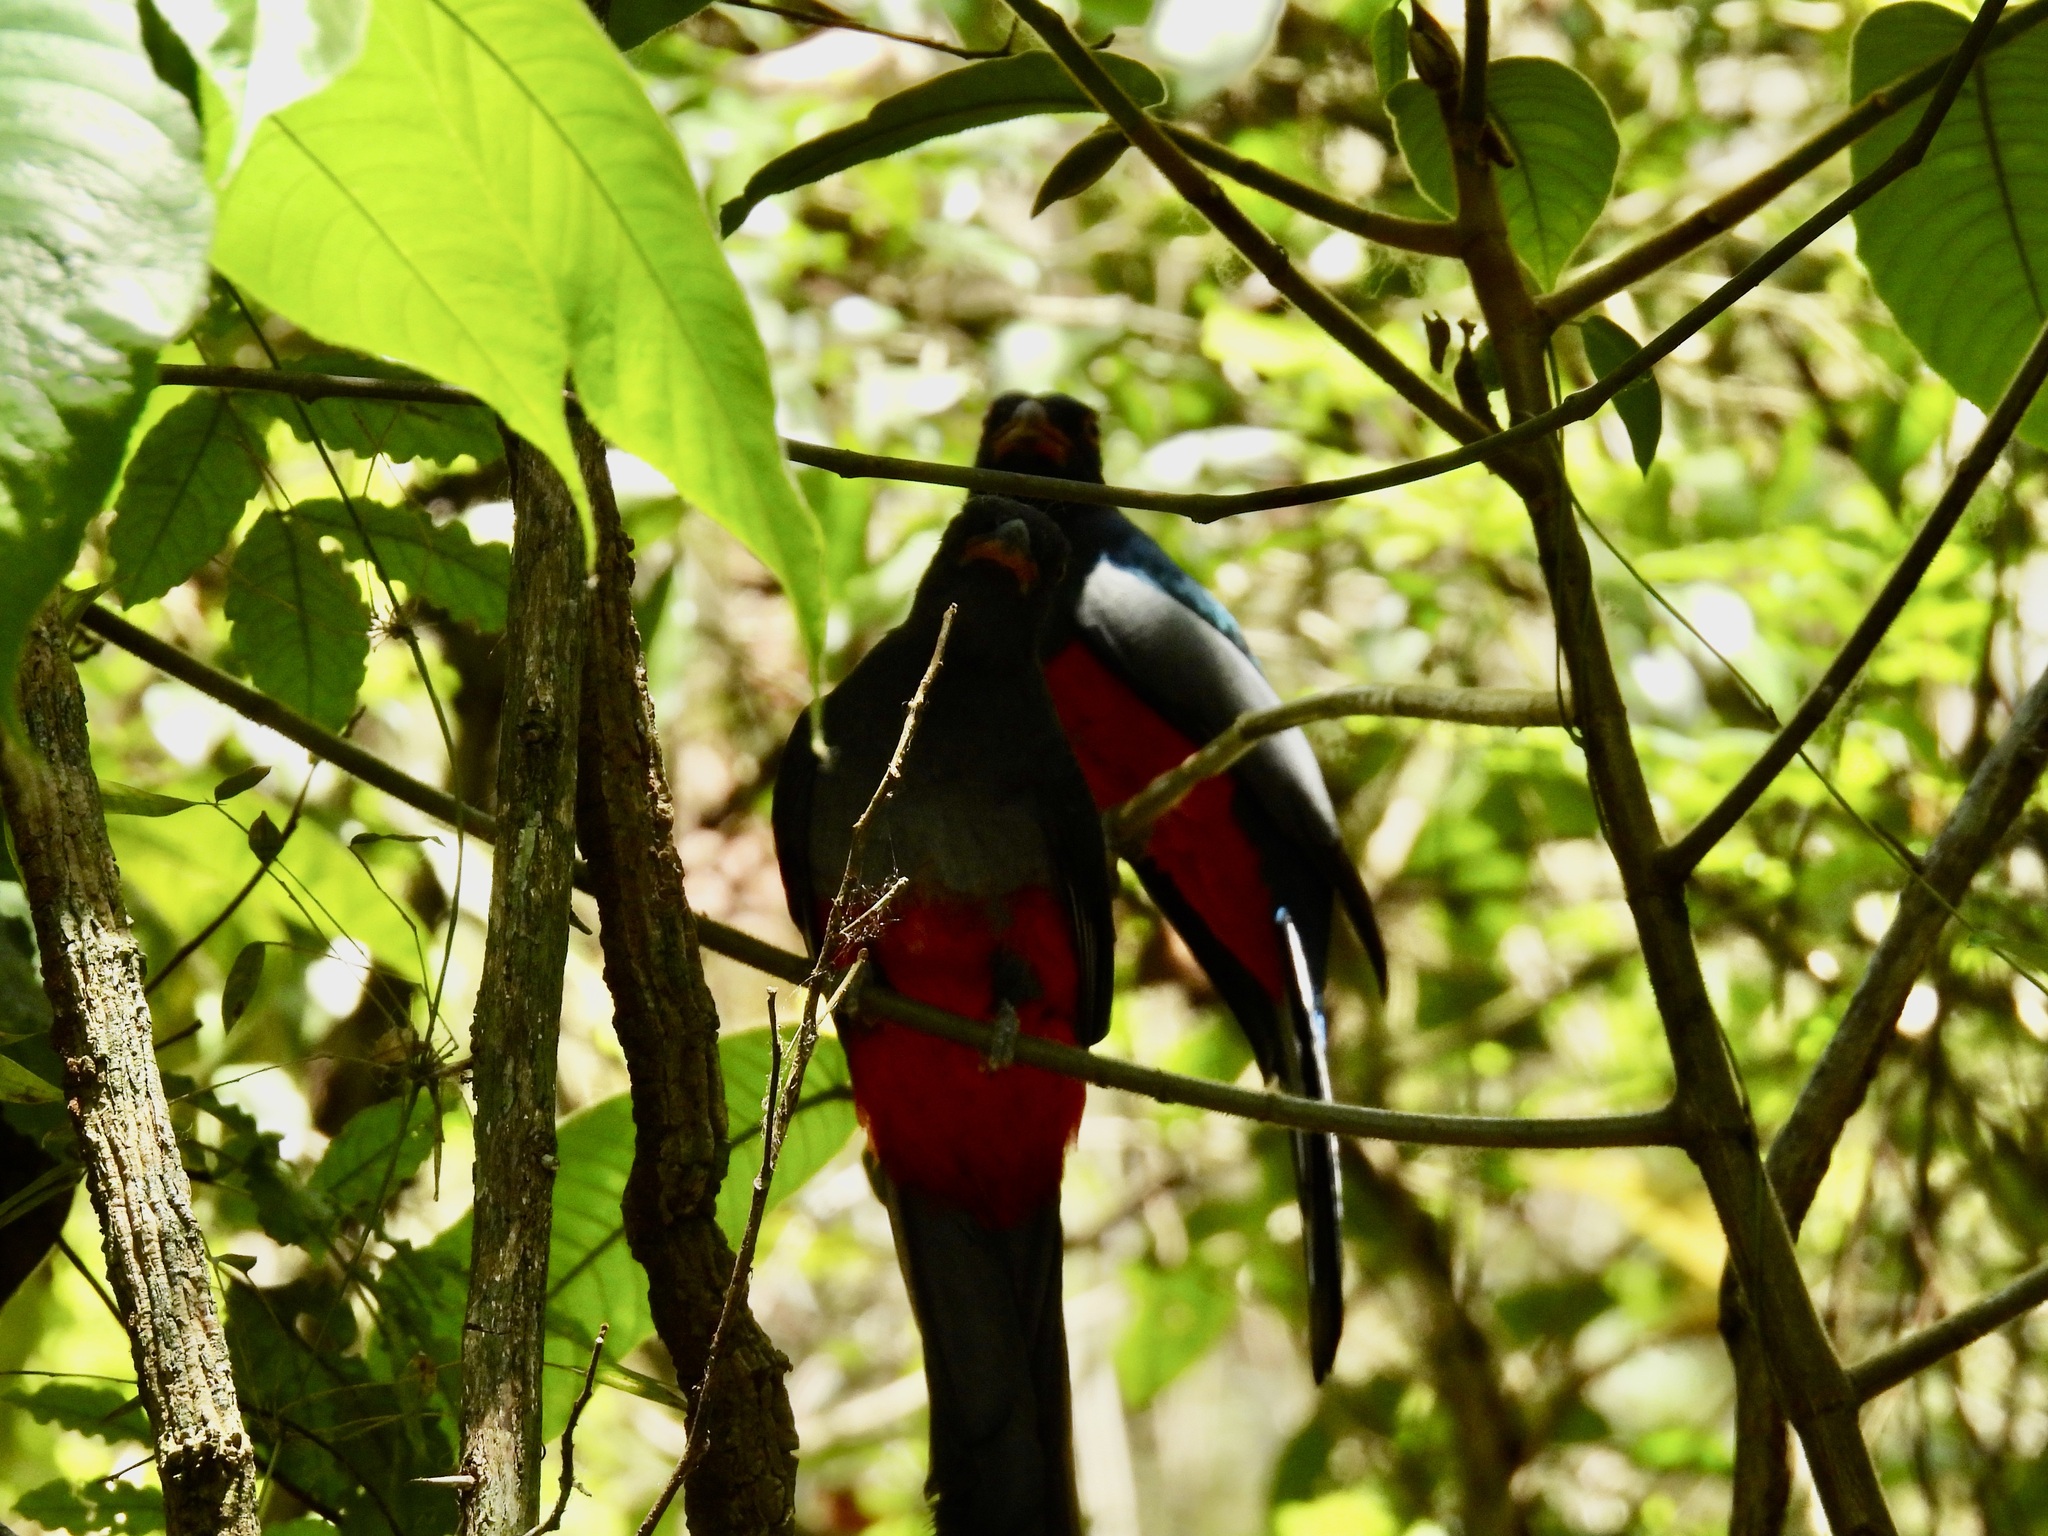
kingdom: Animalia
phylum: Chordata
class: Aves
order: Trogoniformes
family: Trogonidae
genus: Trogon
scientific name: Trogon massena
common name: Slaty-tailed trogon
